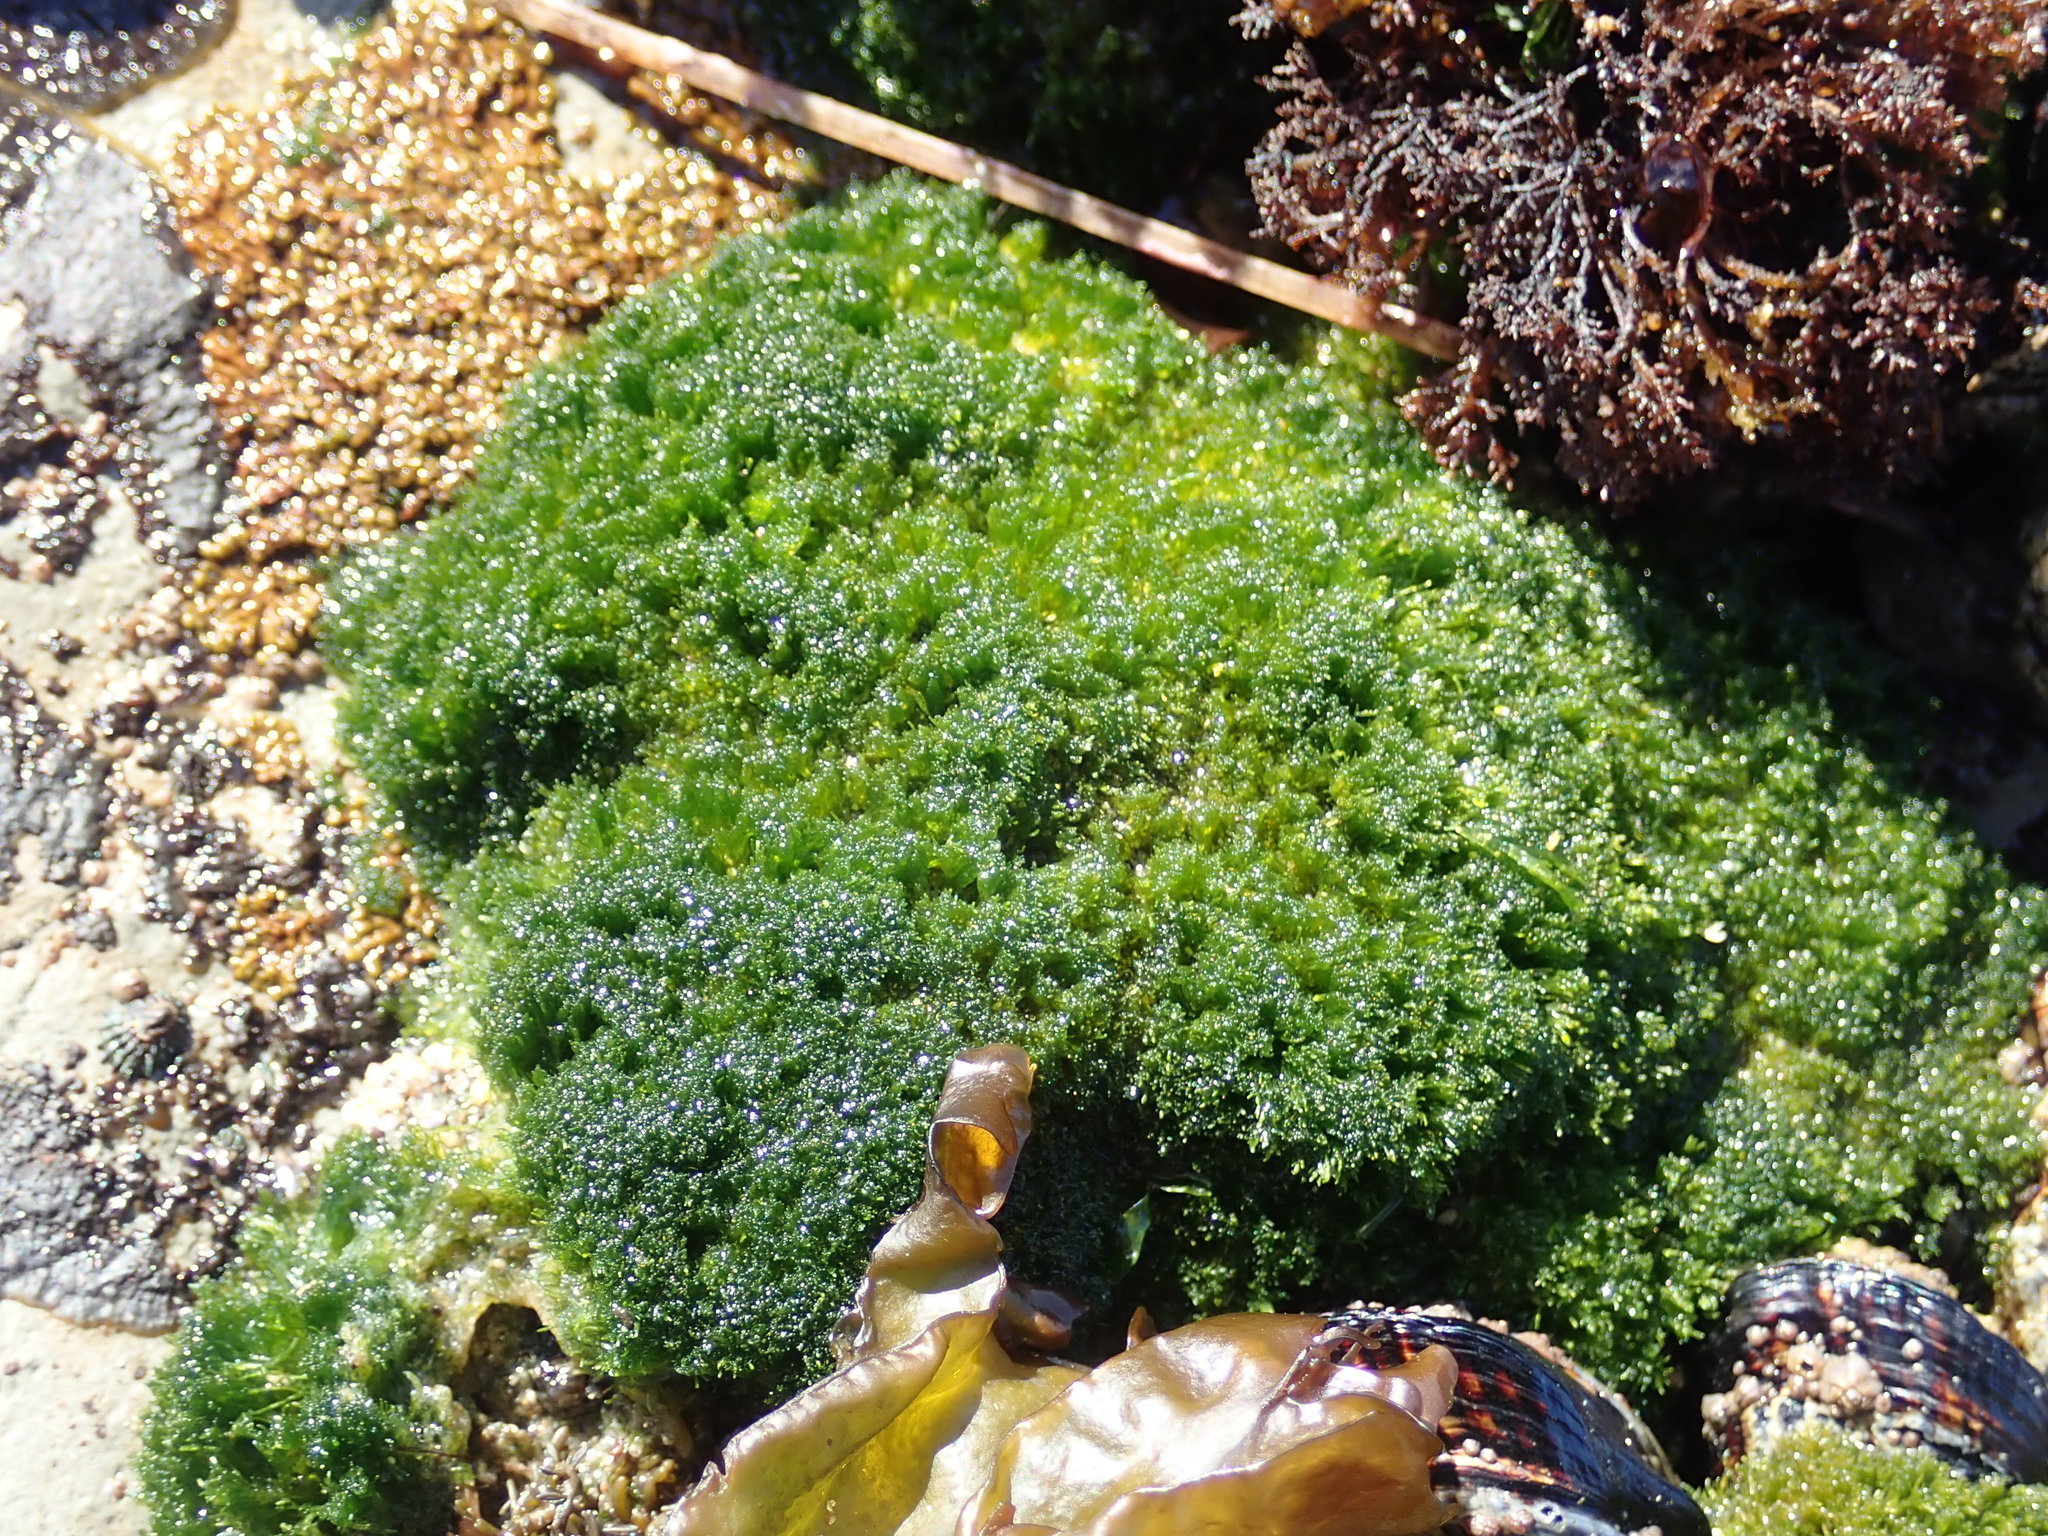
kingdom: Plantae
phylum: Chlorophyta
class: Ulvophyceae
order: Cladophorales
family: Cladophoraceae
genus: Cladophora
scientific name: Cladophora columbiana
